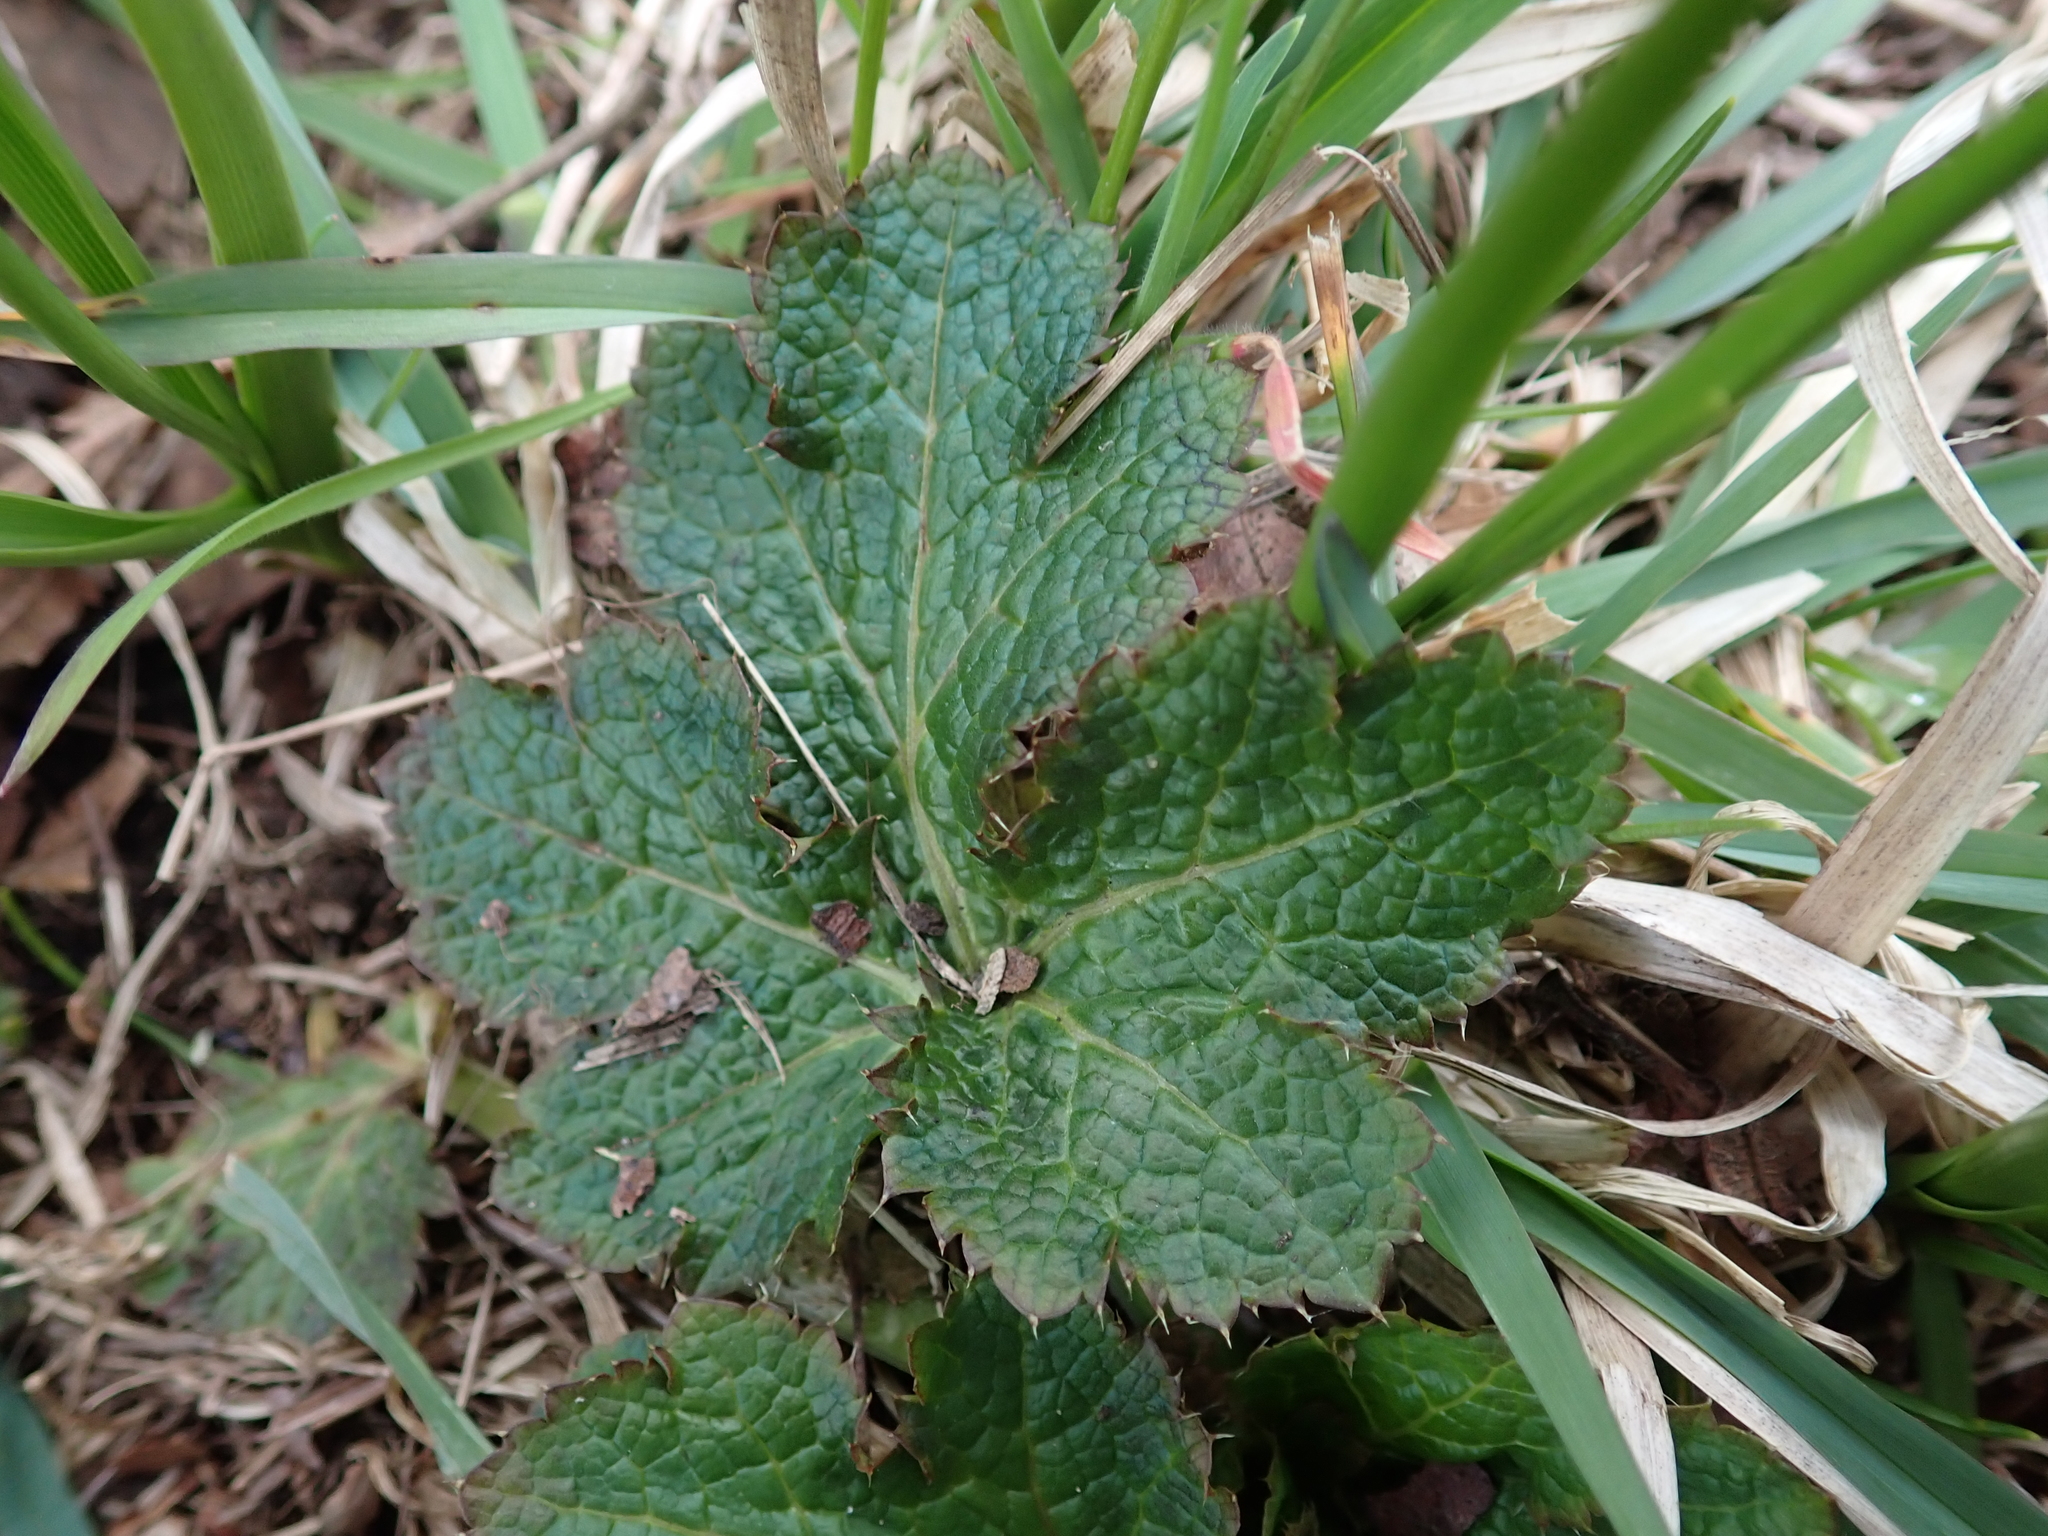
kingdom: Plantae
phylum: Tracheophyta
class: Magnoliopsida
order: Apiales
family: Apiaceae
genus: Sanicula
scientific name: Sanicula crassicaulis
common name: Western snakeroot
